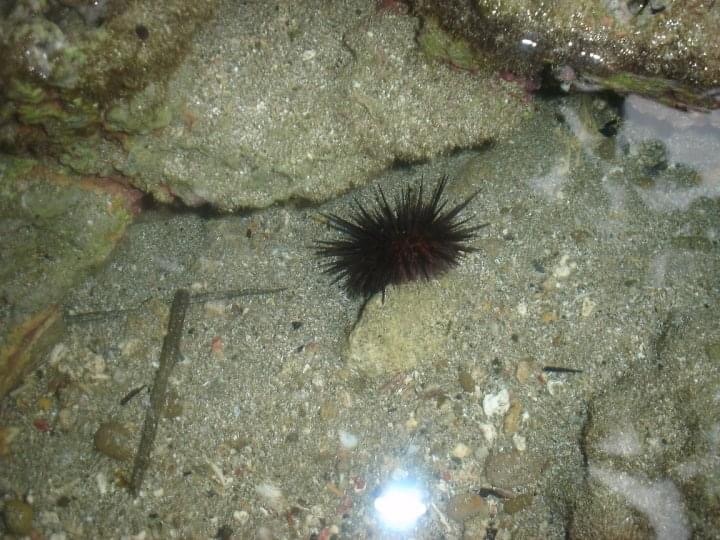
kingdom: Animalia
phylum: Echinodermata
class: Echinoidea
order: Camarodonta
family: Echinometridae
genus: Echinometra
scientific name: Echinometra lucunter
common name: Rock urchin
